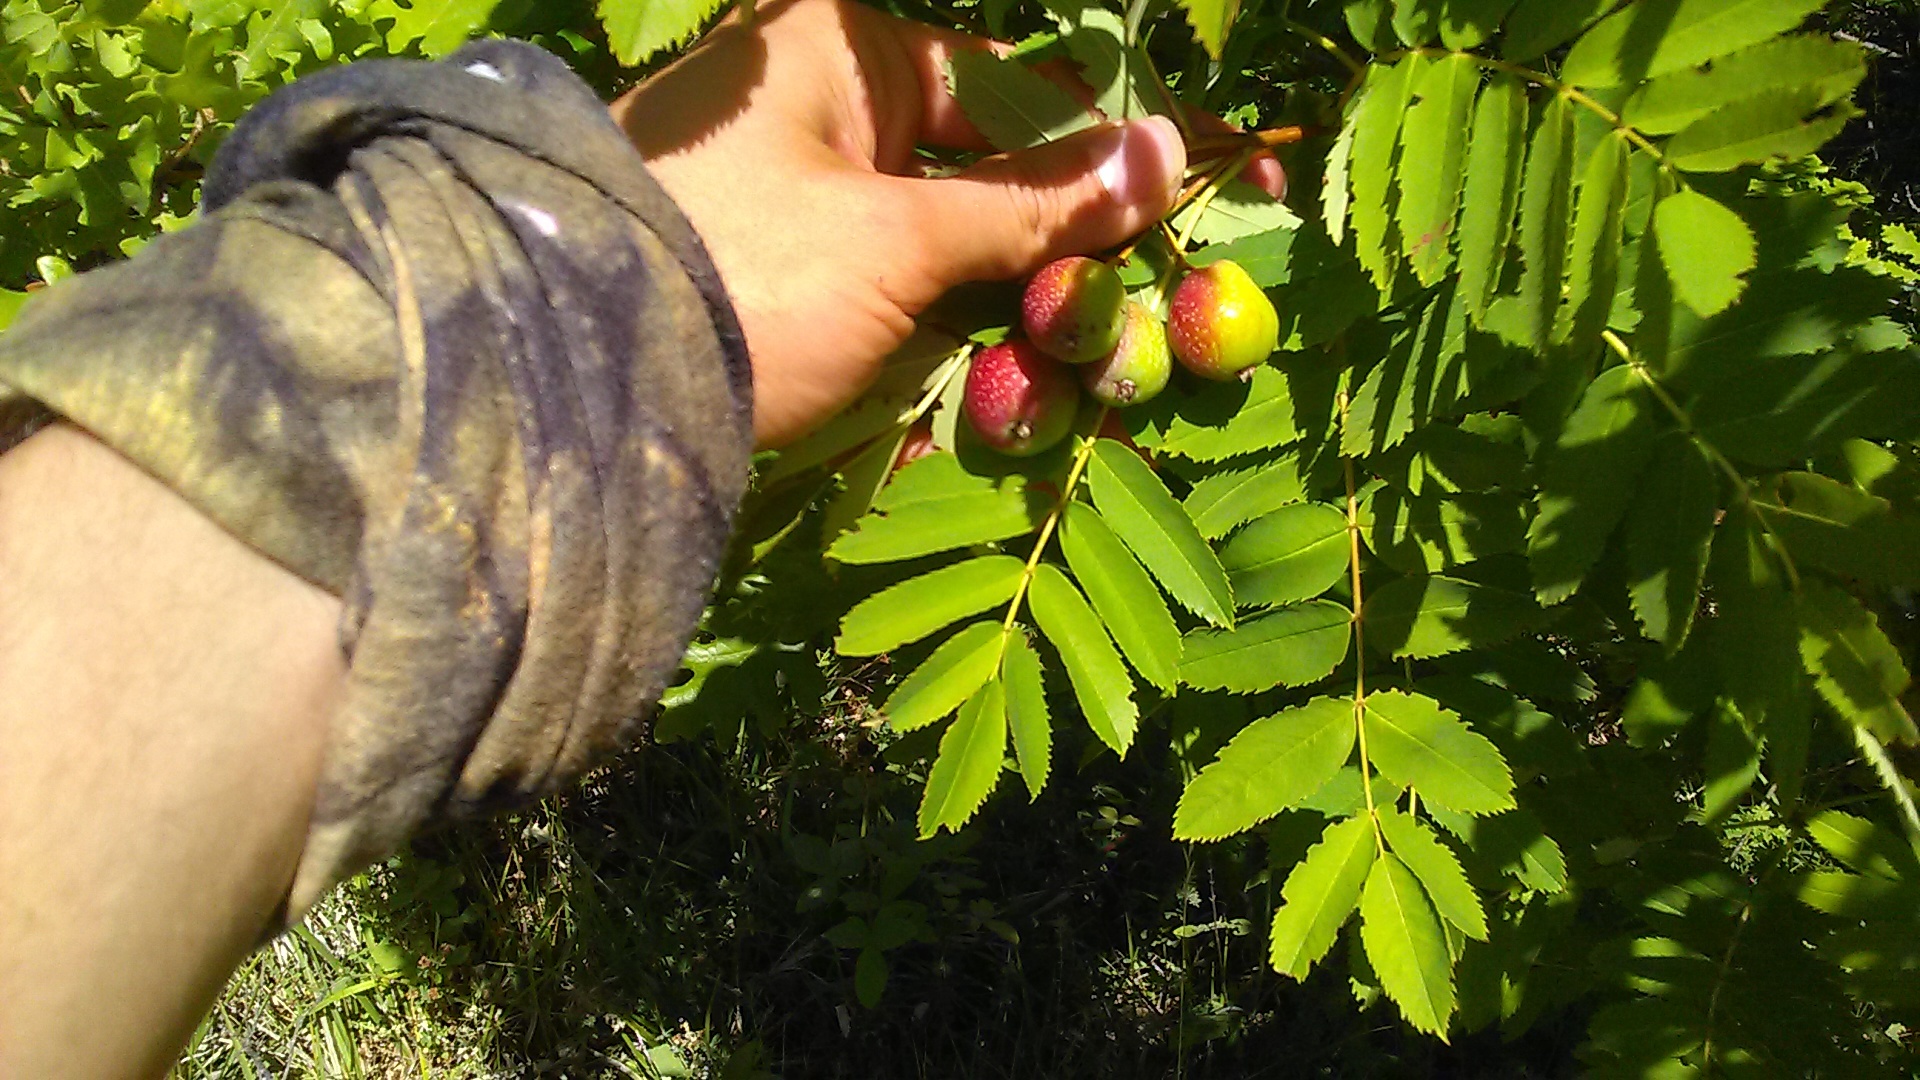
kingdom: Plantae
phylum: Tracheophyta
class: Magnoliopsida
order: Rosales
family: Rosaceae
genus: Cormus
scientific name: Cormus domestica
